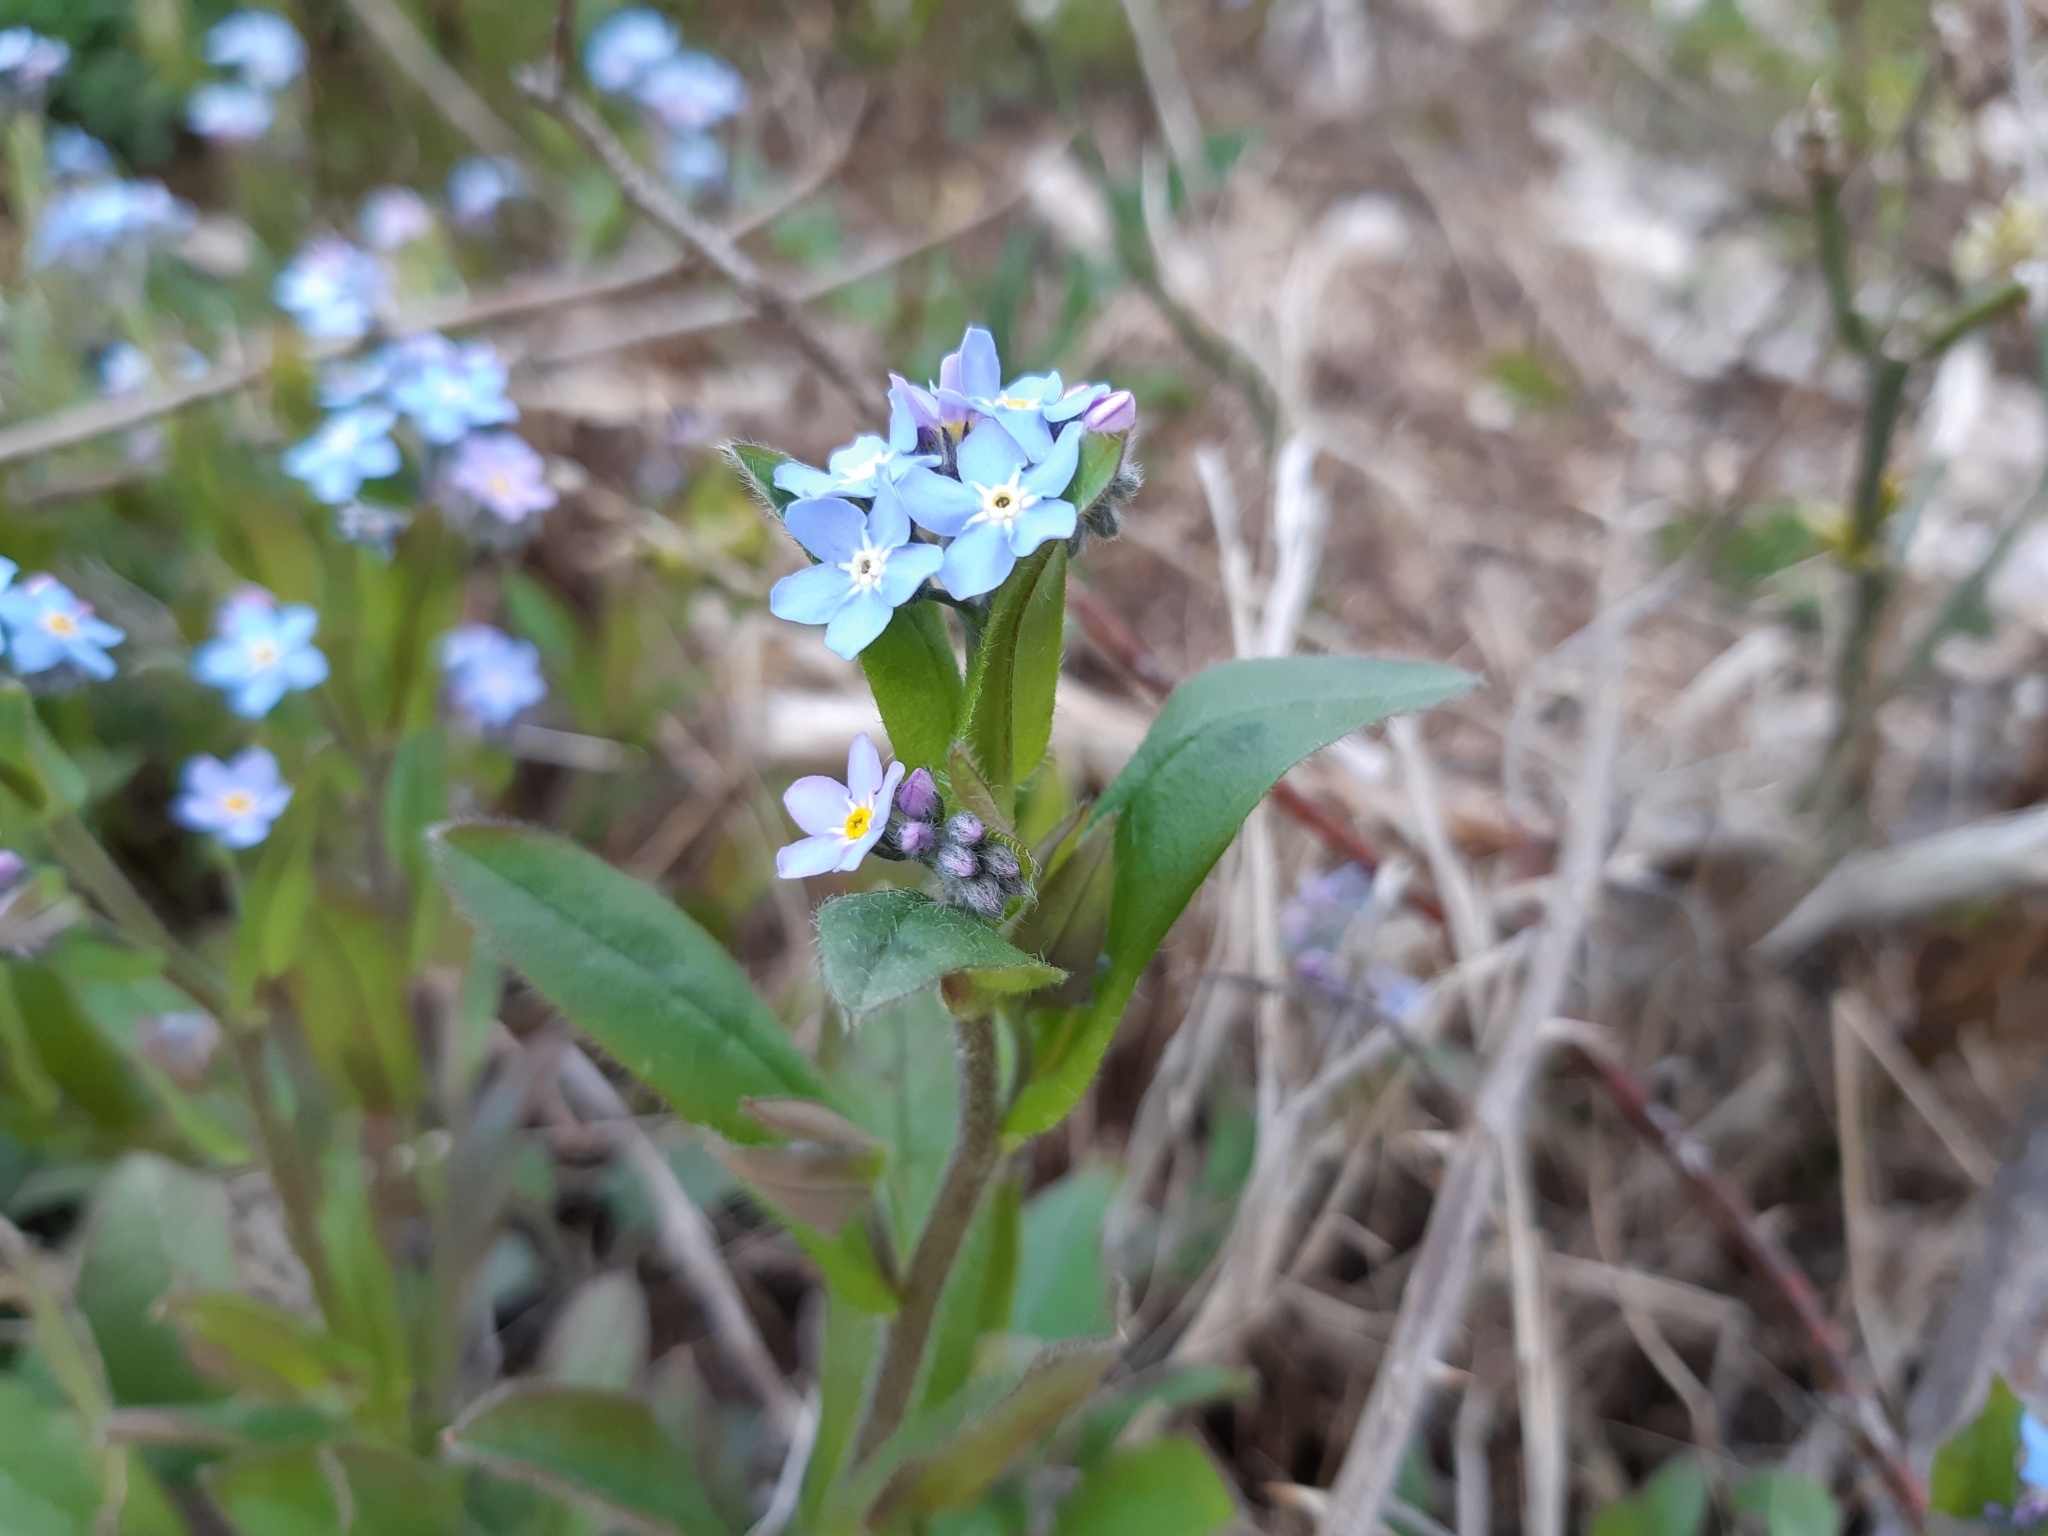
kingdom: Plantae
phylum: Tracheophyta
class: Magnoliopsida
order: Boraginales
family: Boraginaceae
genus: Myosotis
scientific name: Myosotis sylvatica
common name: Wood forget-me-not
